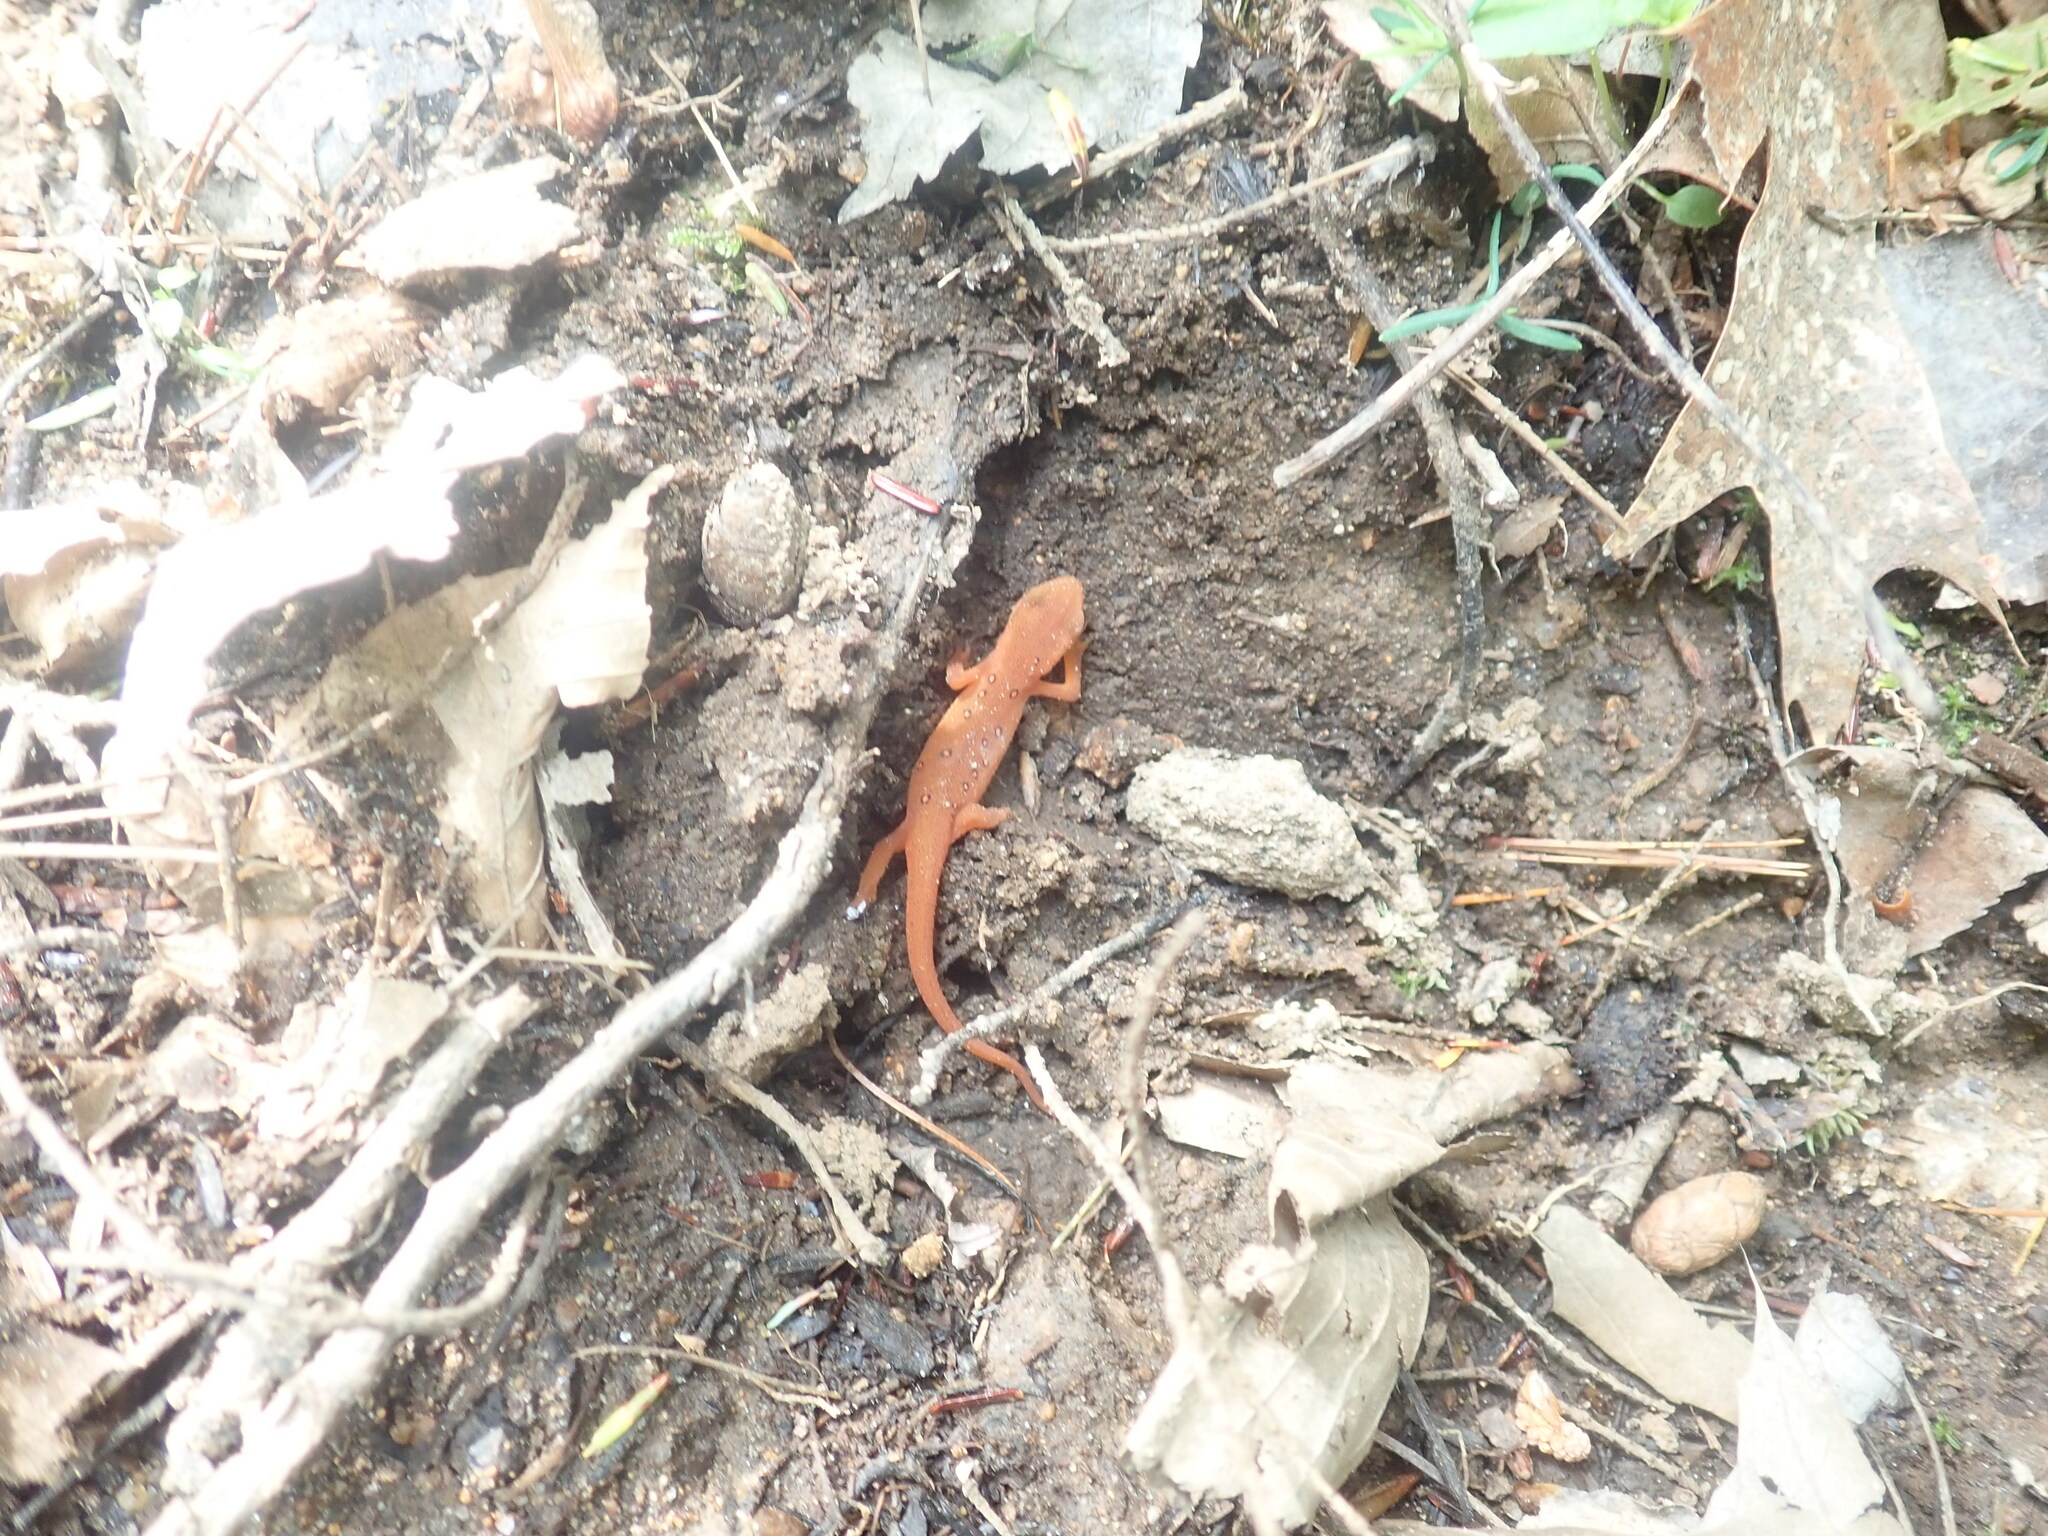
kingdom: Animalia
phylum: Chordata
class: Amphibia
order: Caudata
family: Salamandridae
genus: Notophthalmus
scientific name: Notophthalmus viridescens
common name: Eastern newt
